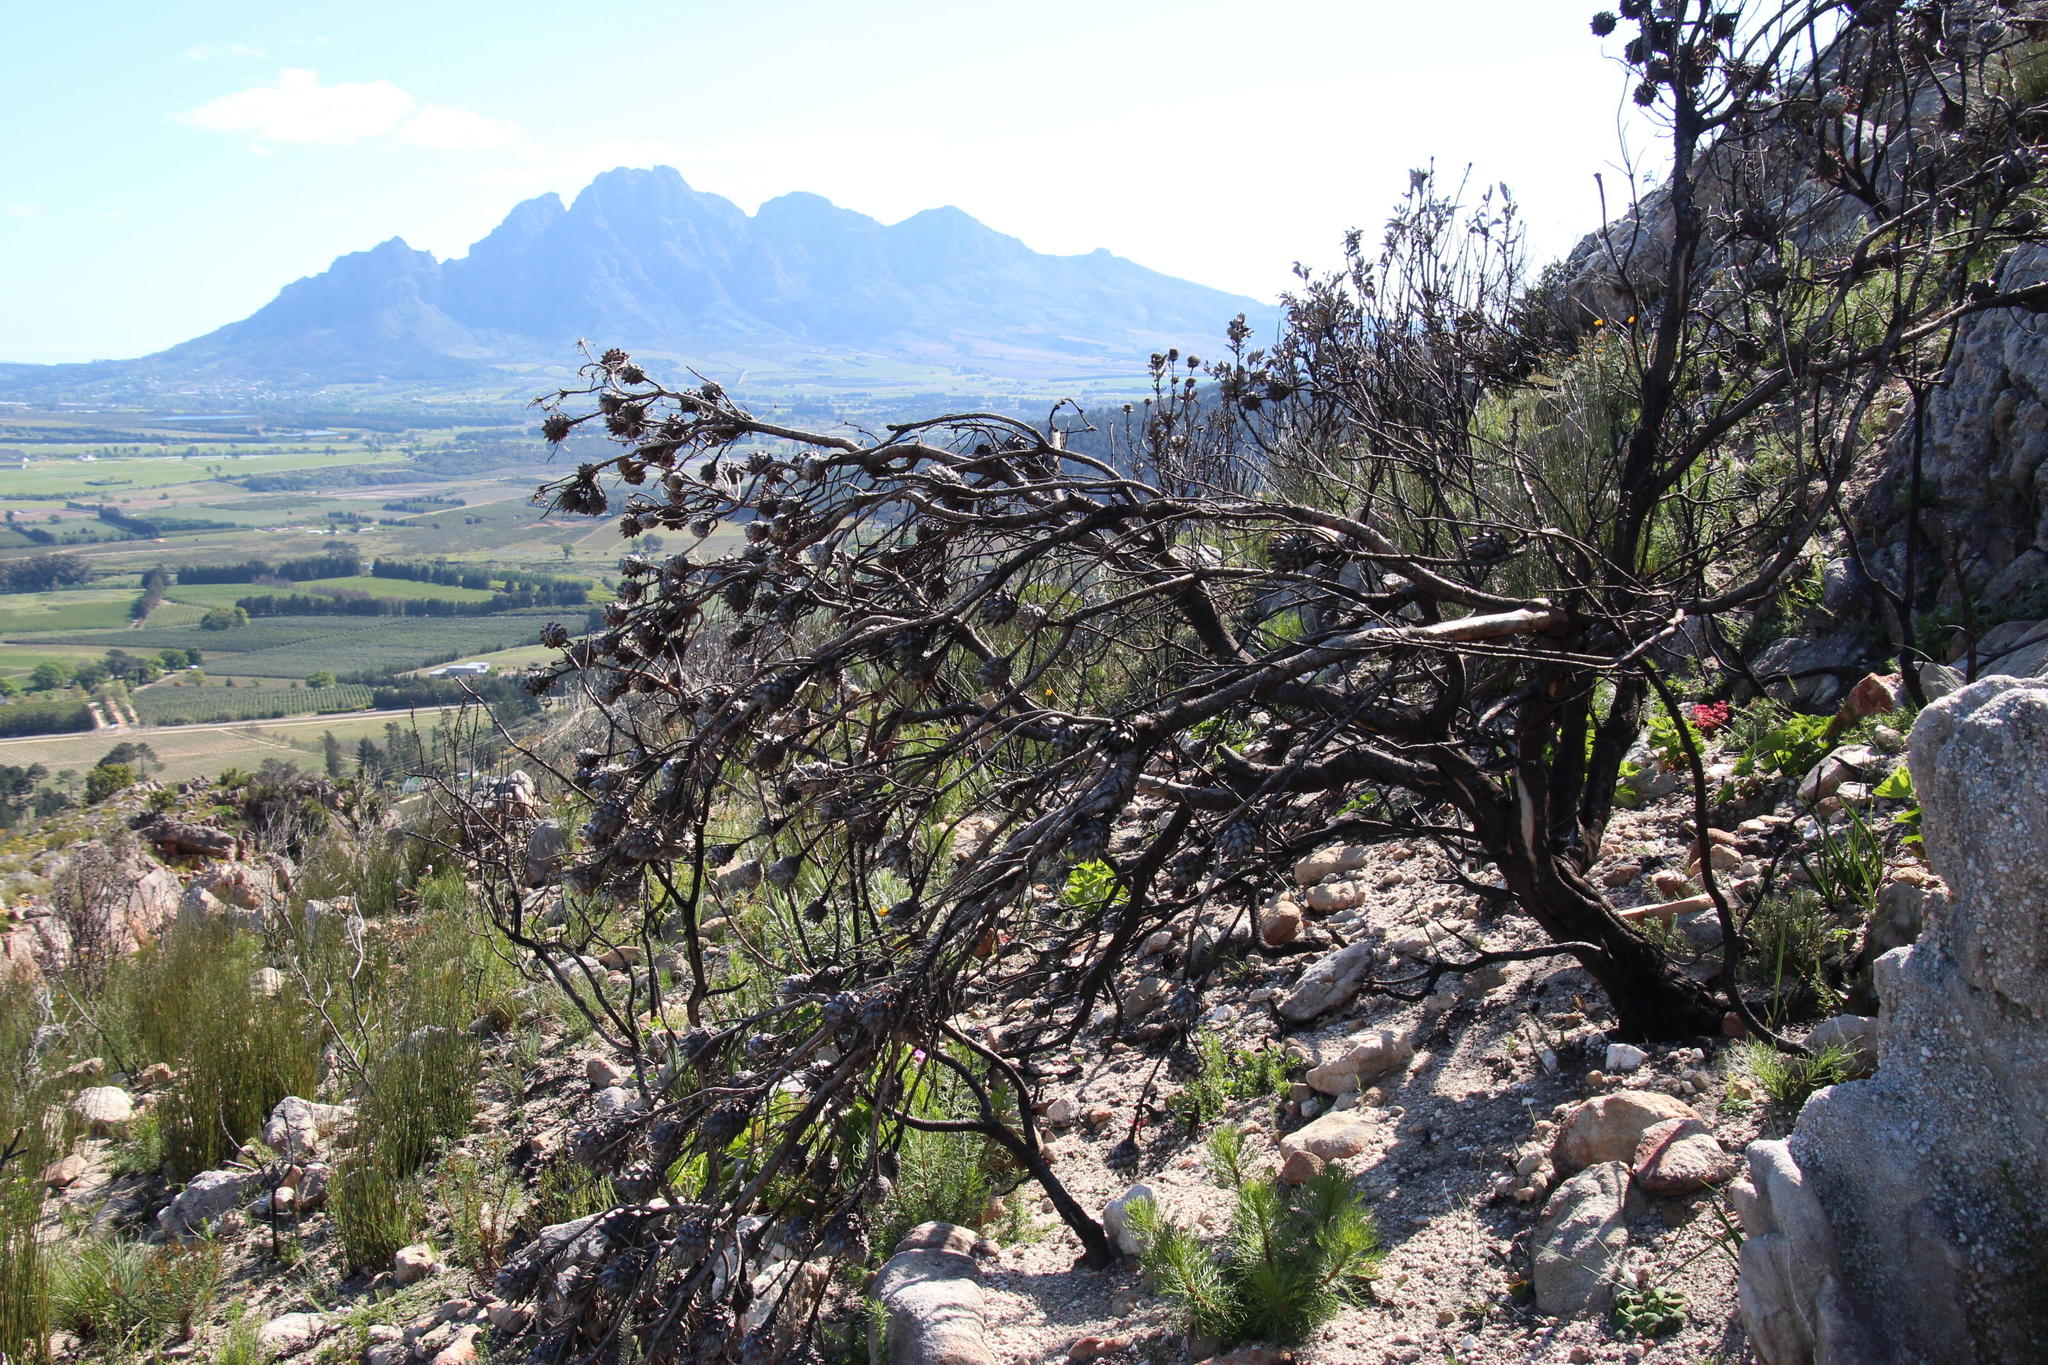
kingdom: Plantae
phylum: Tracheophyta
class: Magnoliopsida
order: Proteales
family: Proteaceae
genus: Leucadendron
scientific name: Leucadendron rubrum
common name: Spinning top
